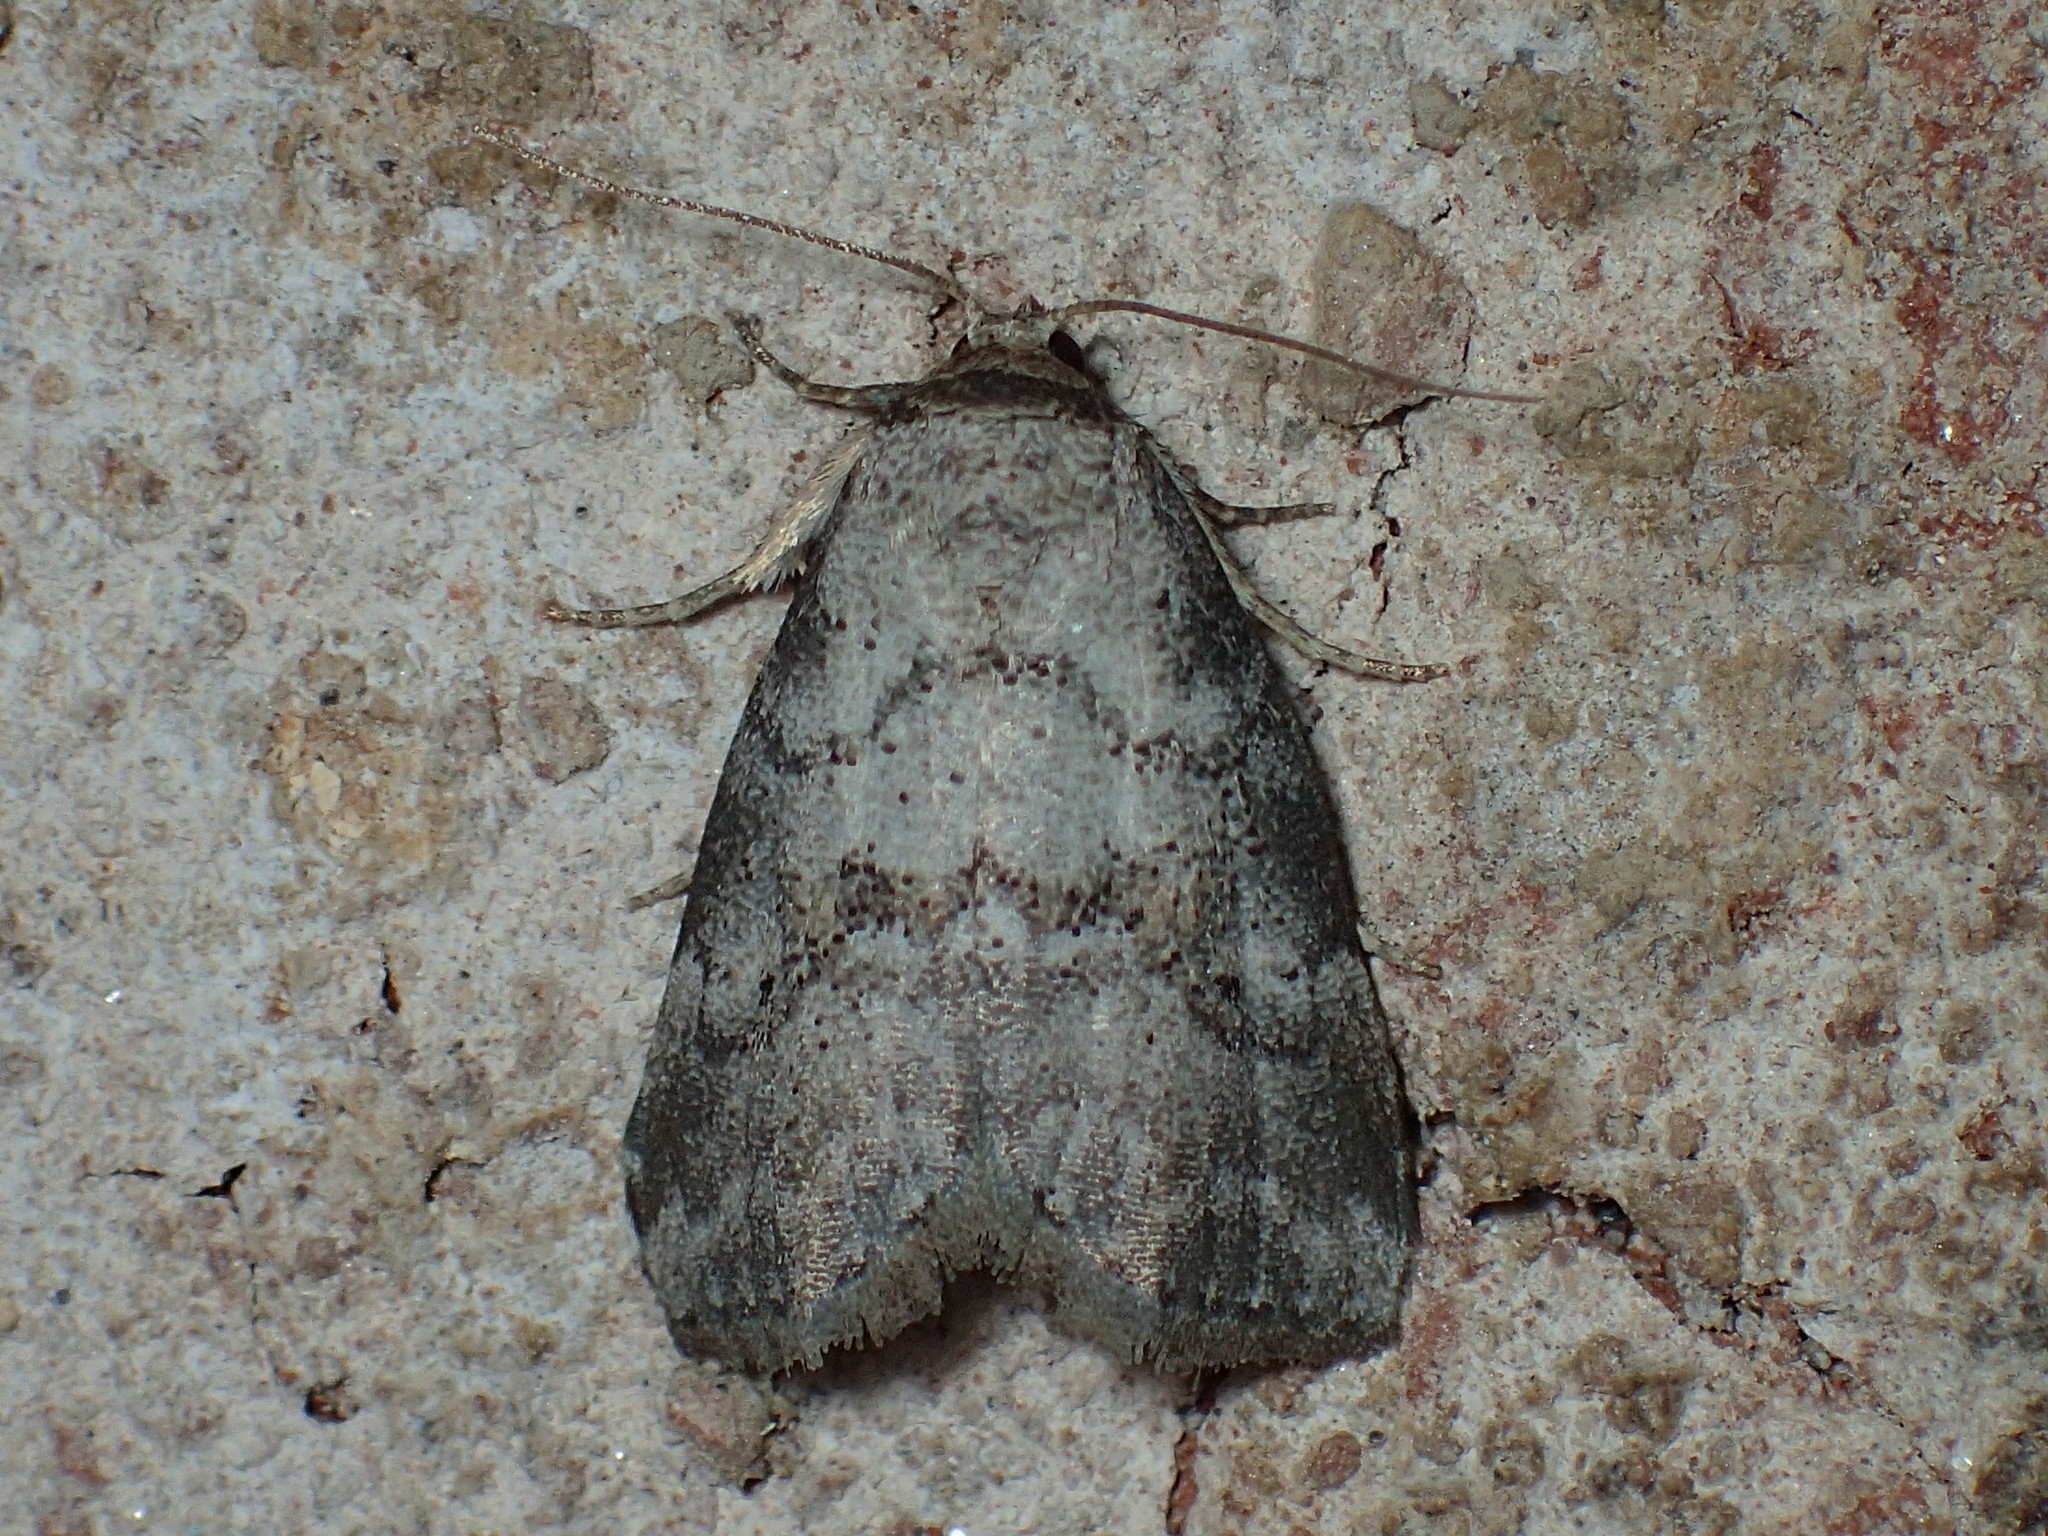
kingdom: Animalia
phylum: Arthropoda
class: Insecta
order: Lepidoptera
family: Erebidae
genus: Hyperstrotia
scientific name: Hyperstrotia pervertens
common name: Dotted graylet
